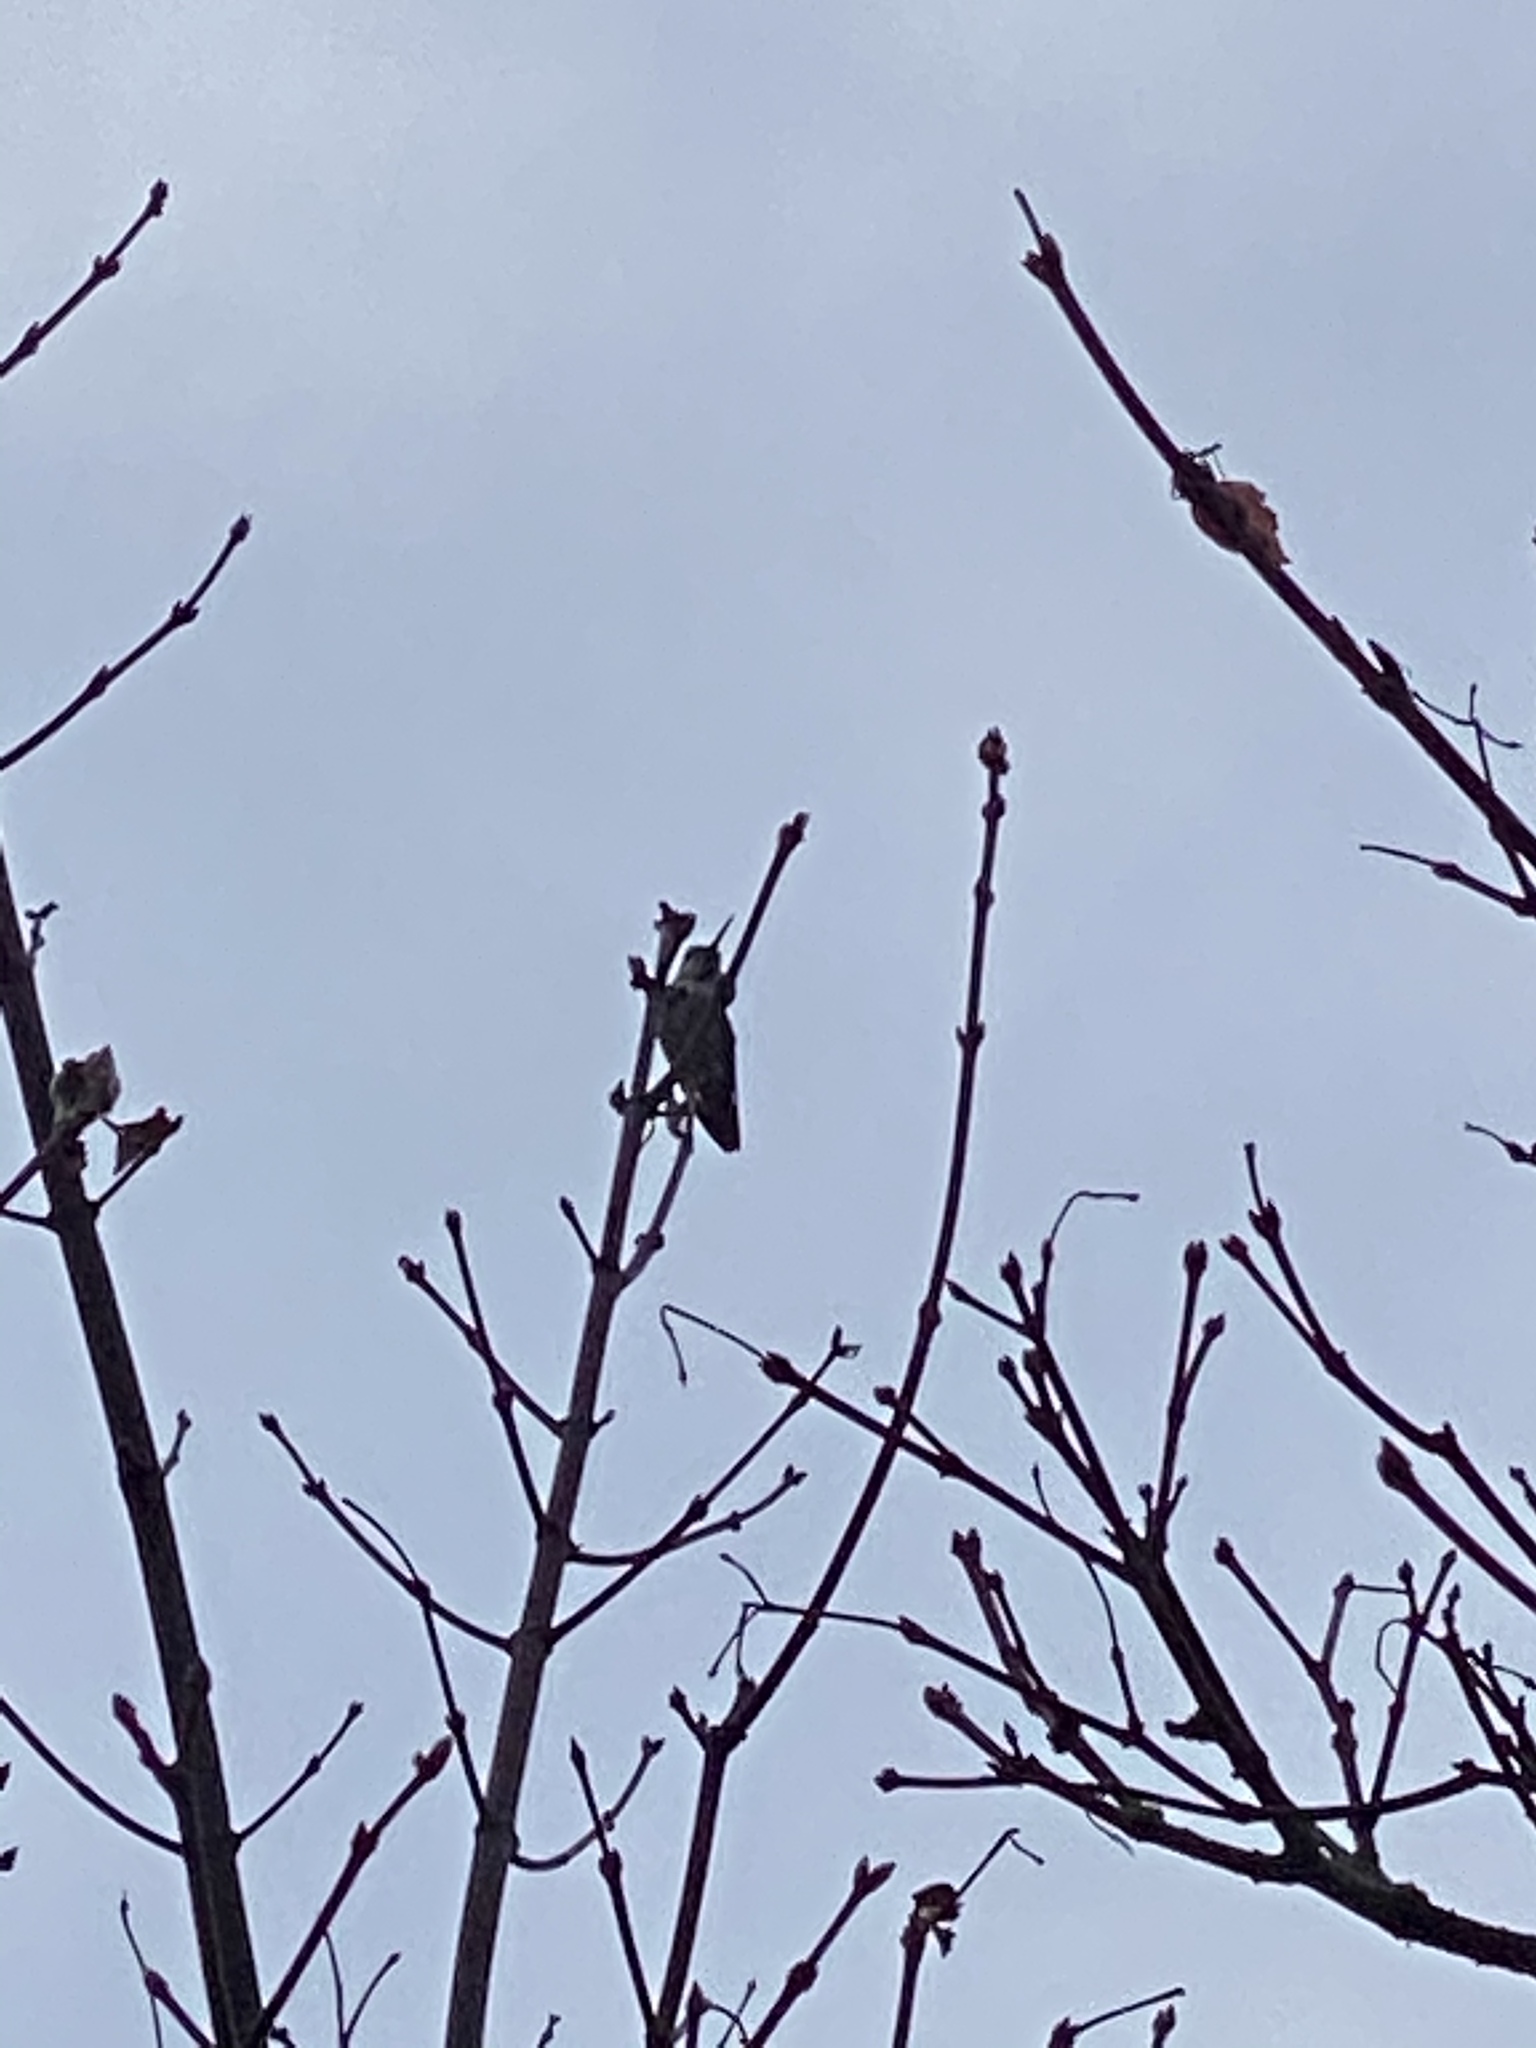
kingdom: Animalia
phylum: Chordata
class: Aves
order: Apodiformes
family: Trochilidae
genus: Calypte
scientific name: Calypte anna
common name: Anna's hummingbird
